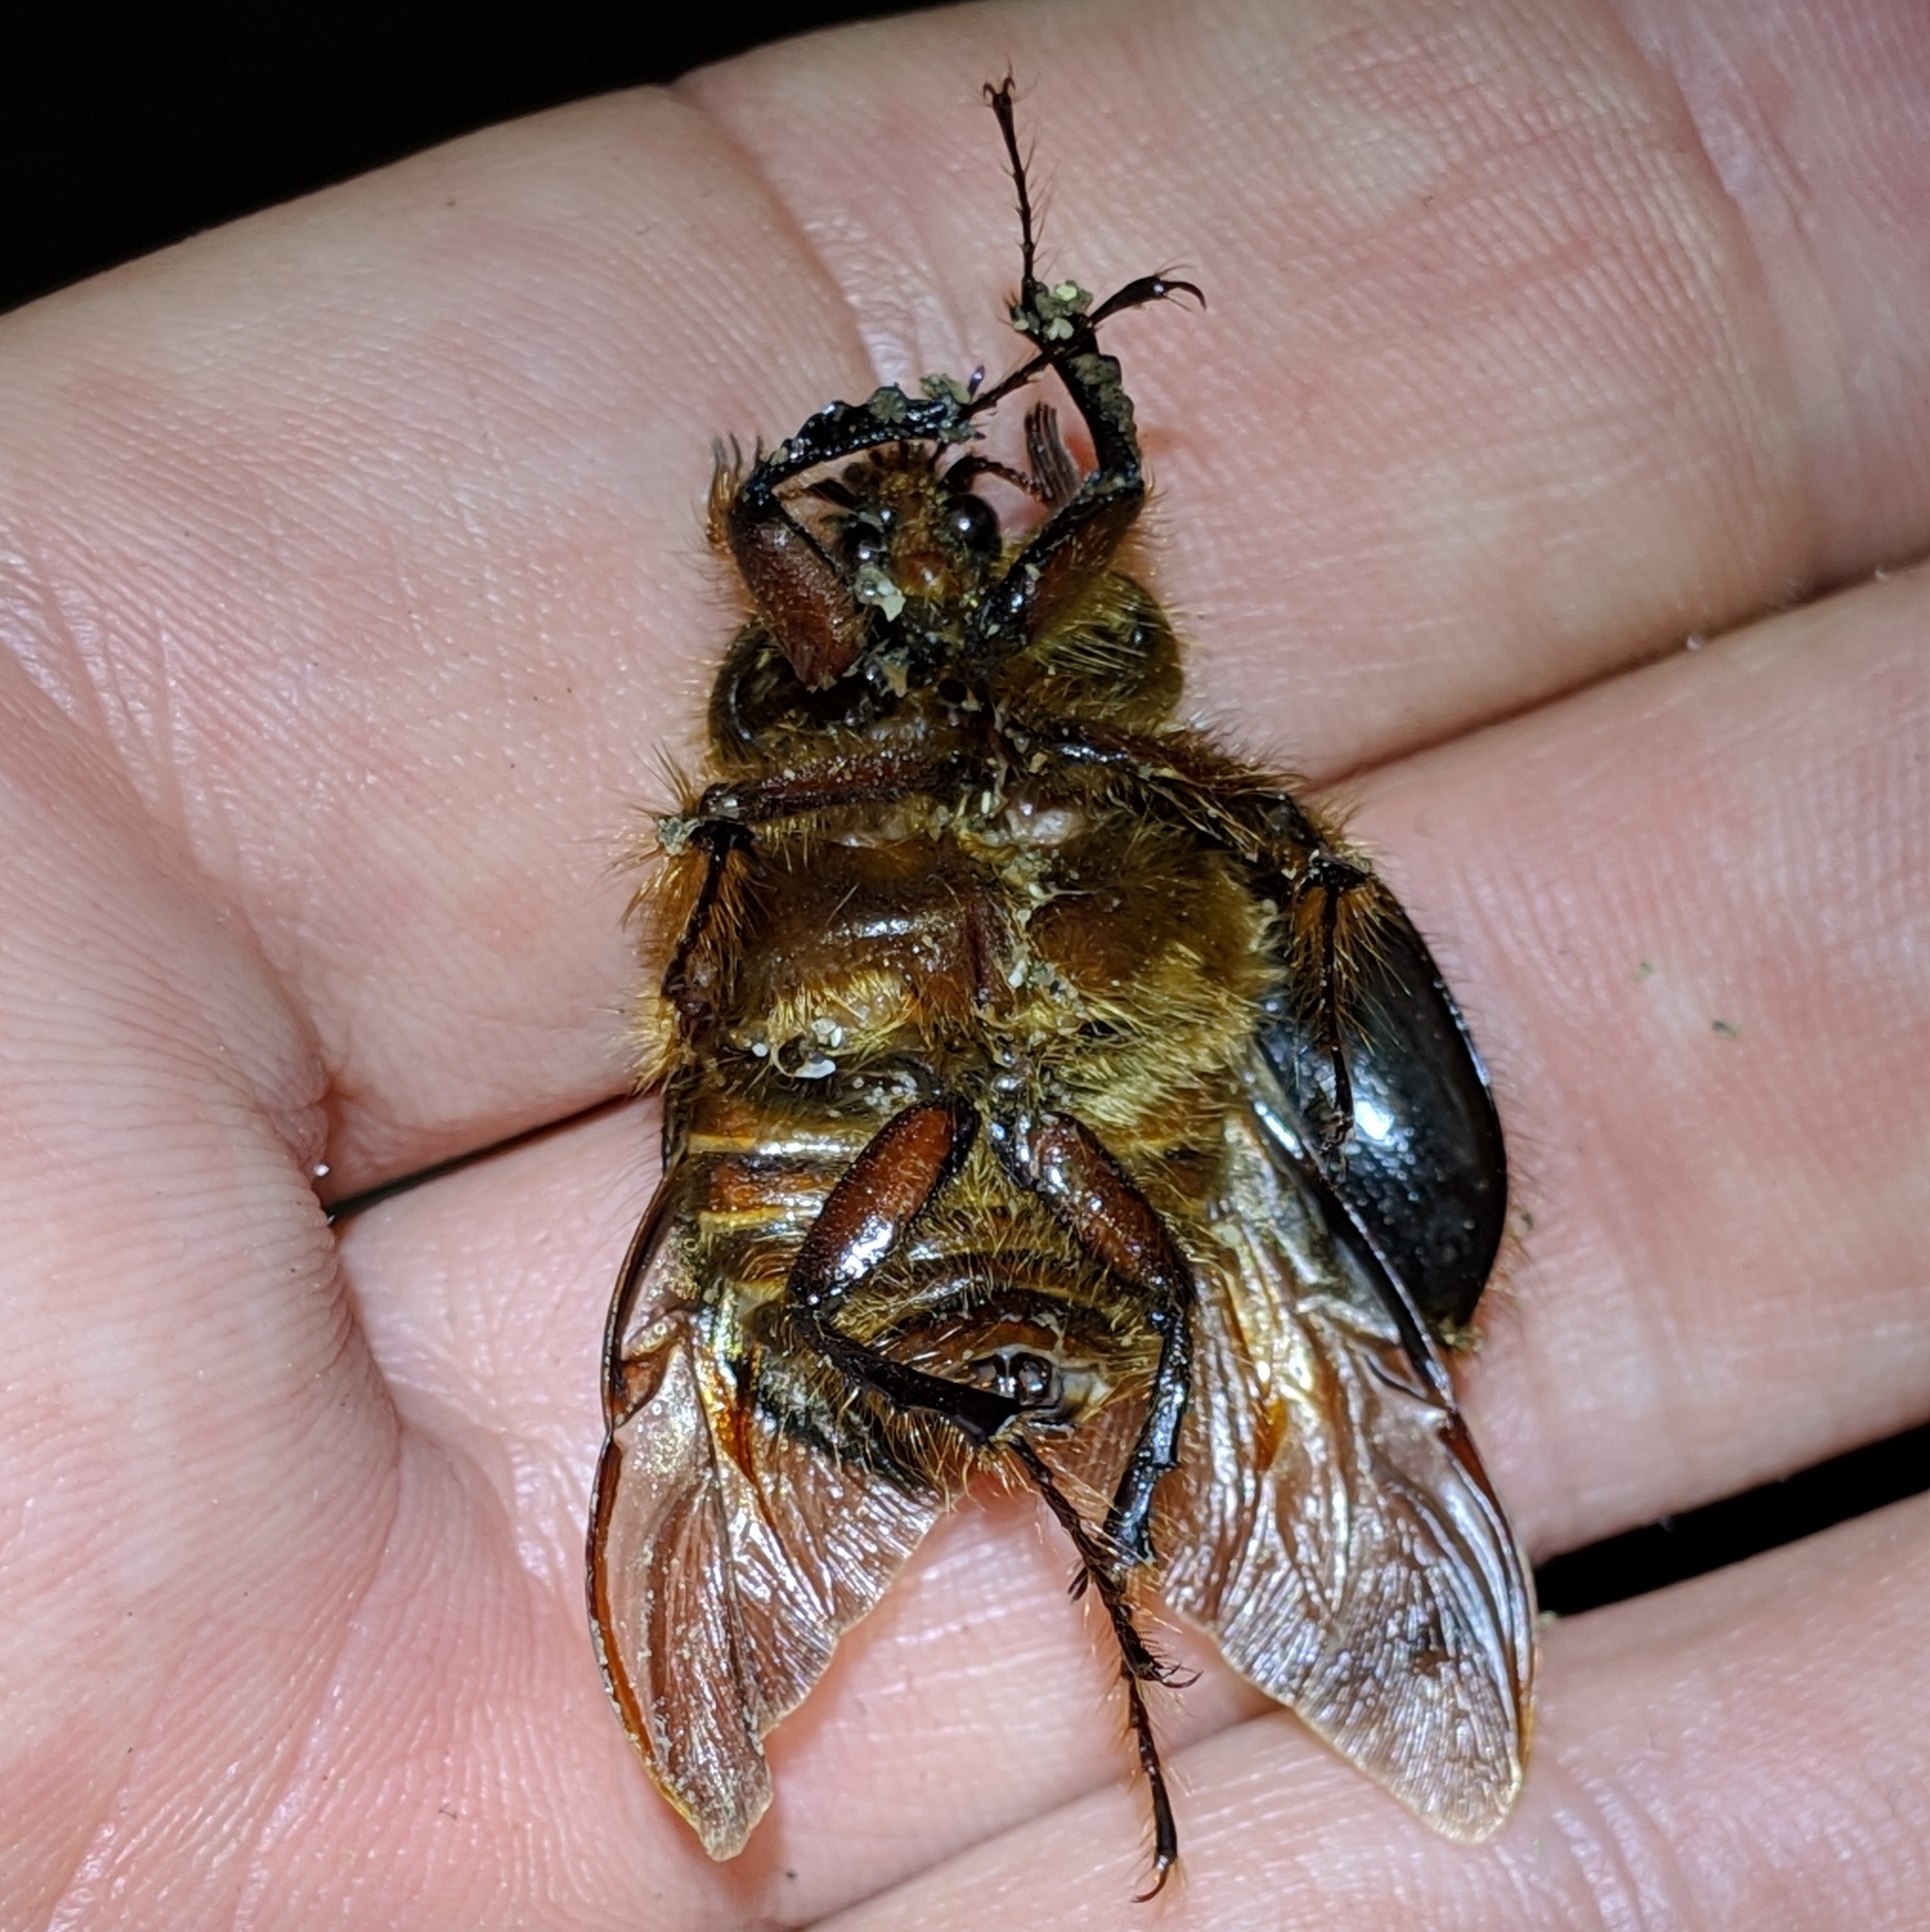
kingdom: Animalia
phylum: Arthropoda
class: Insecta
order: Coleoptera
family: Pleocomidae
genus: Pleocoma
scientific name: Pleocoma behrensi
